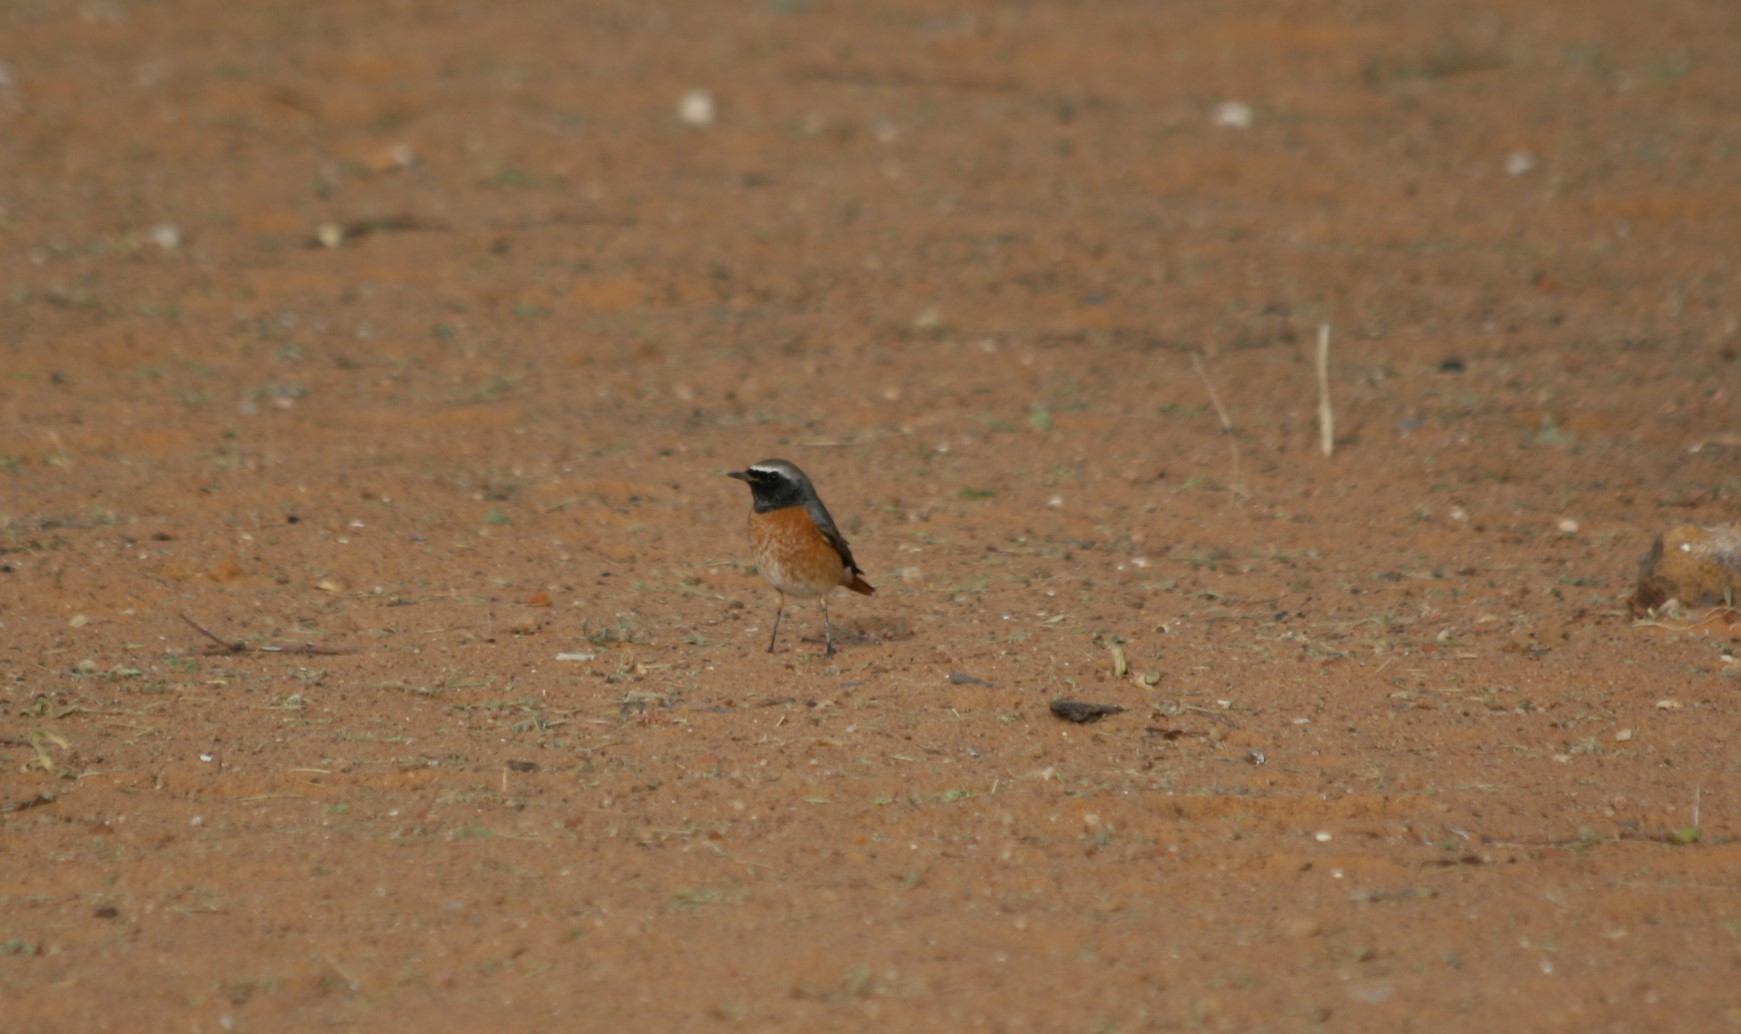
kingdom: Animalia
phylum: Chordata
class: Aves
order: Passeriformes
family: Muscicapidae
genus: Phoenicurus
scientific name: Phoenicurus phoenicurus
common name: Common redstart
